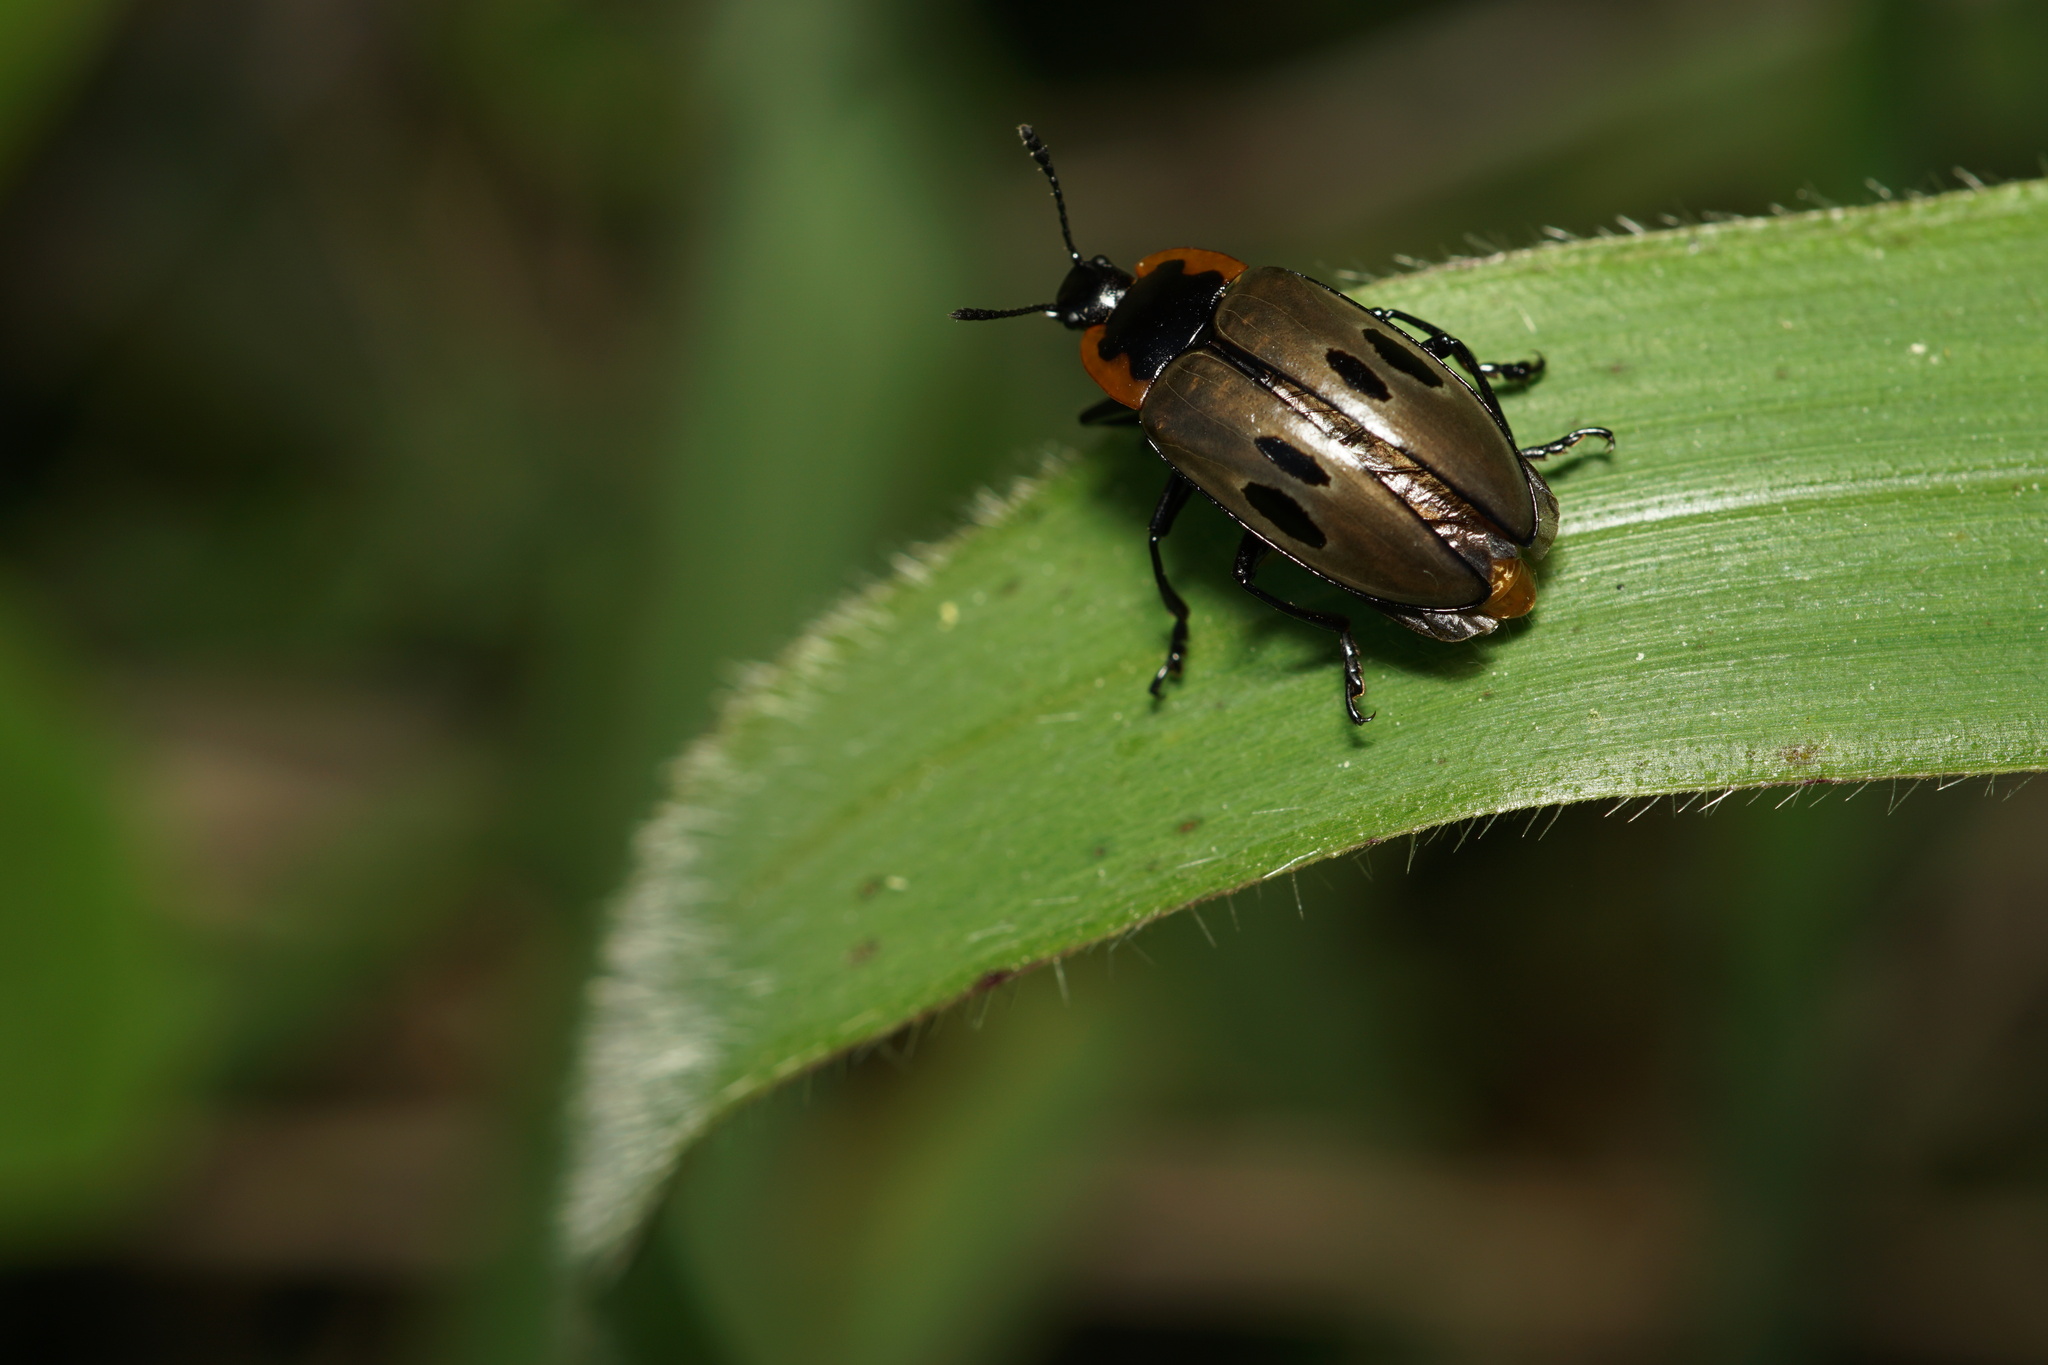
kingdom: Animalia
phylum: Arthropoda
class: Insecta
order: Coleoptera
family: Erotylidae
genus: Iphiclus
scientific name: Iphiclus
